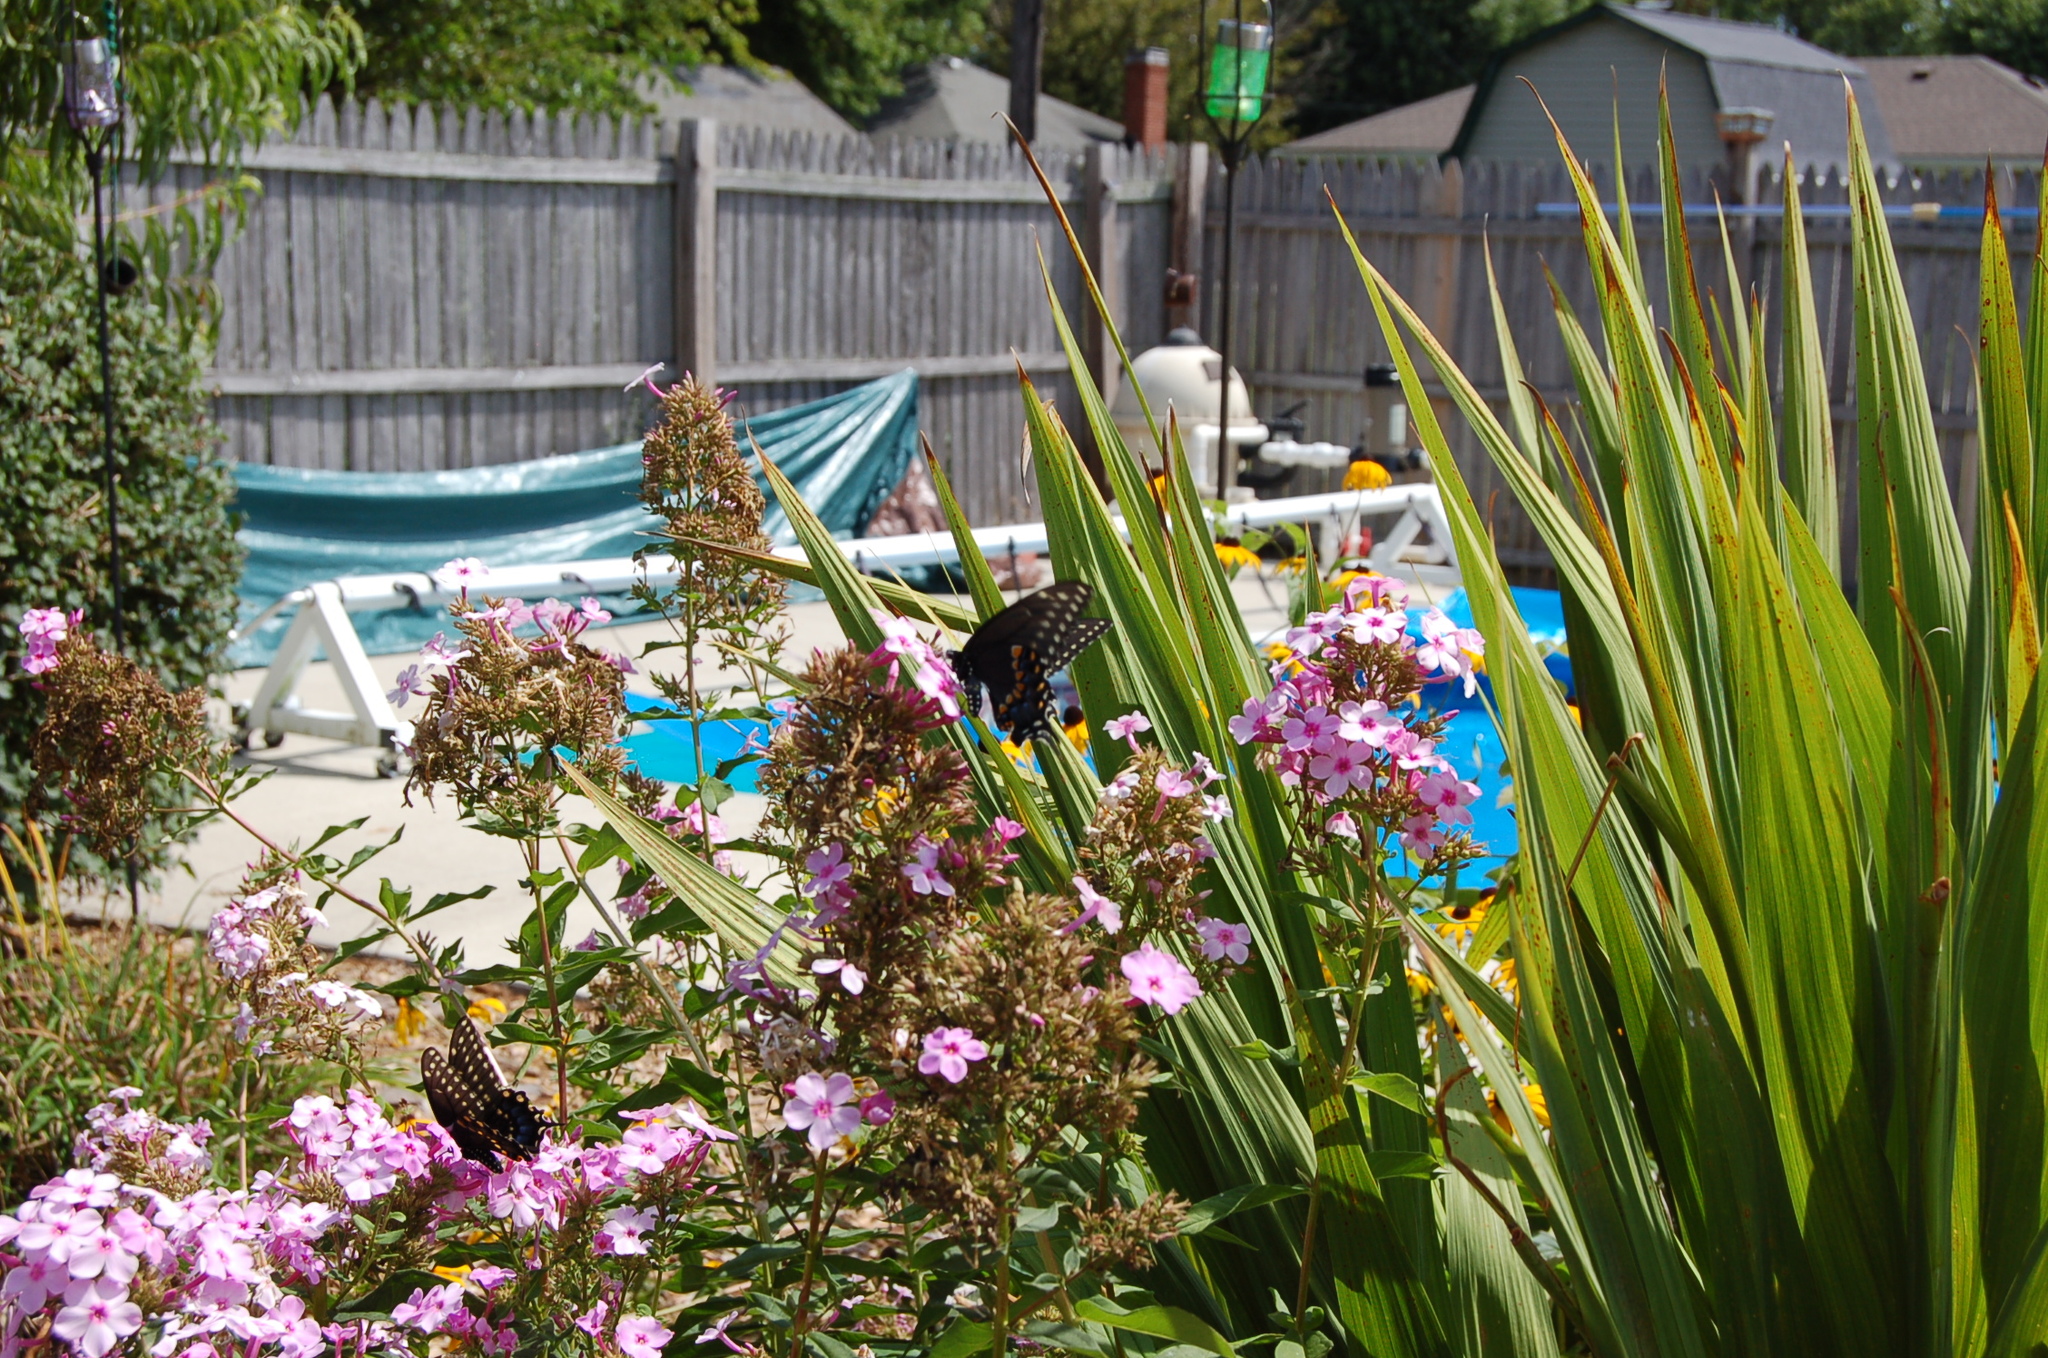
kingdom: Animalia
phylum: Arthropoda
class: Insecta
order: Lepidoptera
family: Papilionidae
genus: Papilio
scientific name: Papilio polyxenes
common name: Black swallowtail
